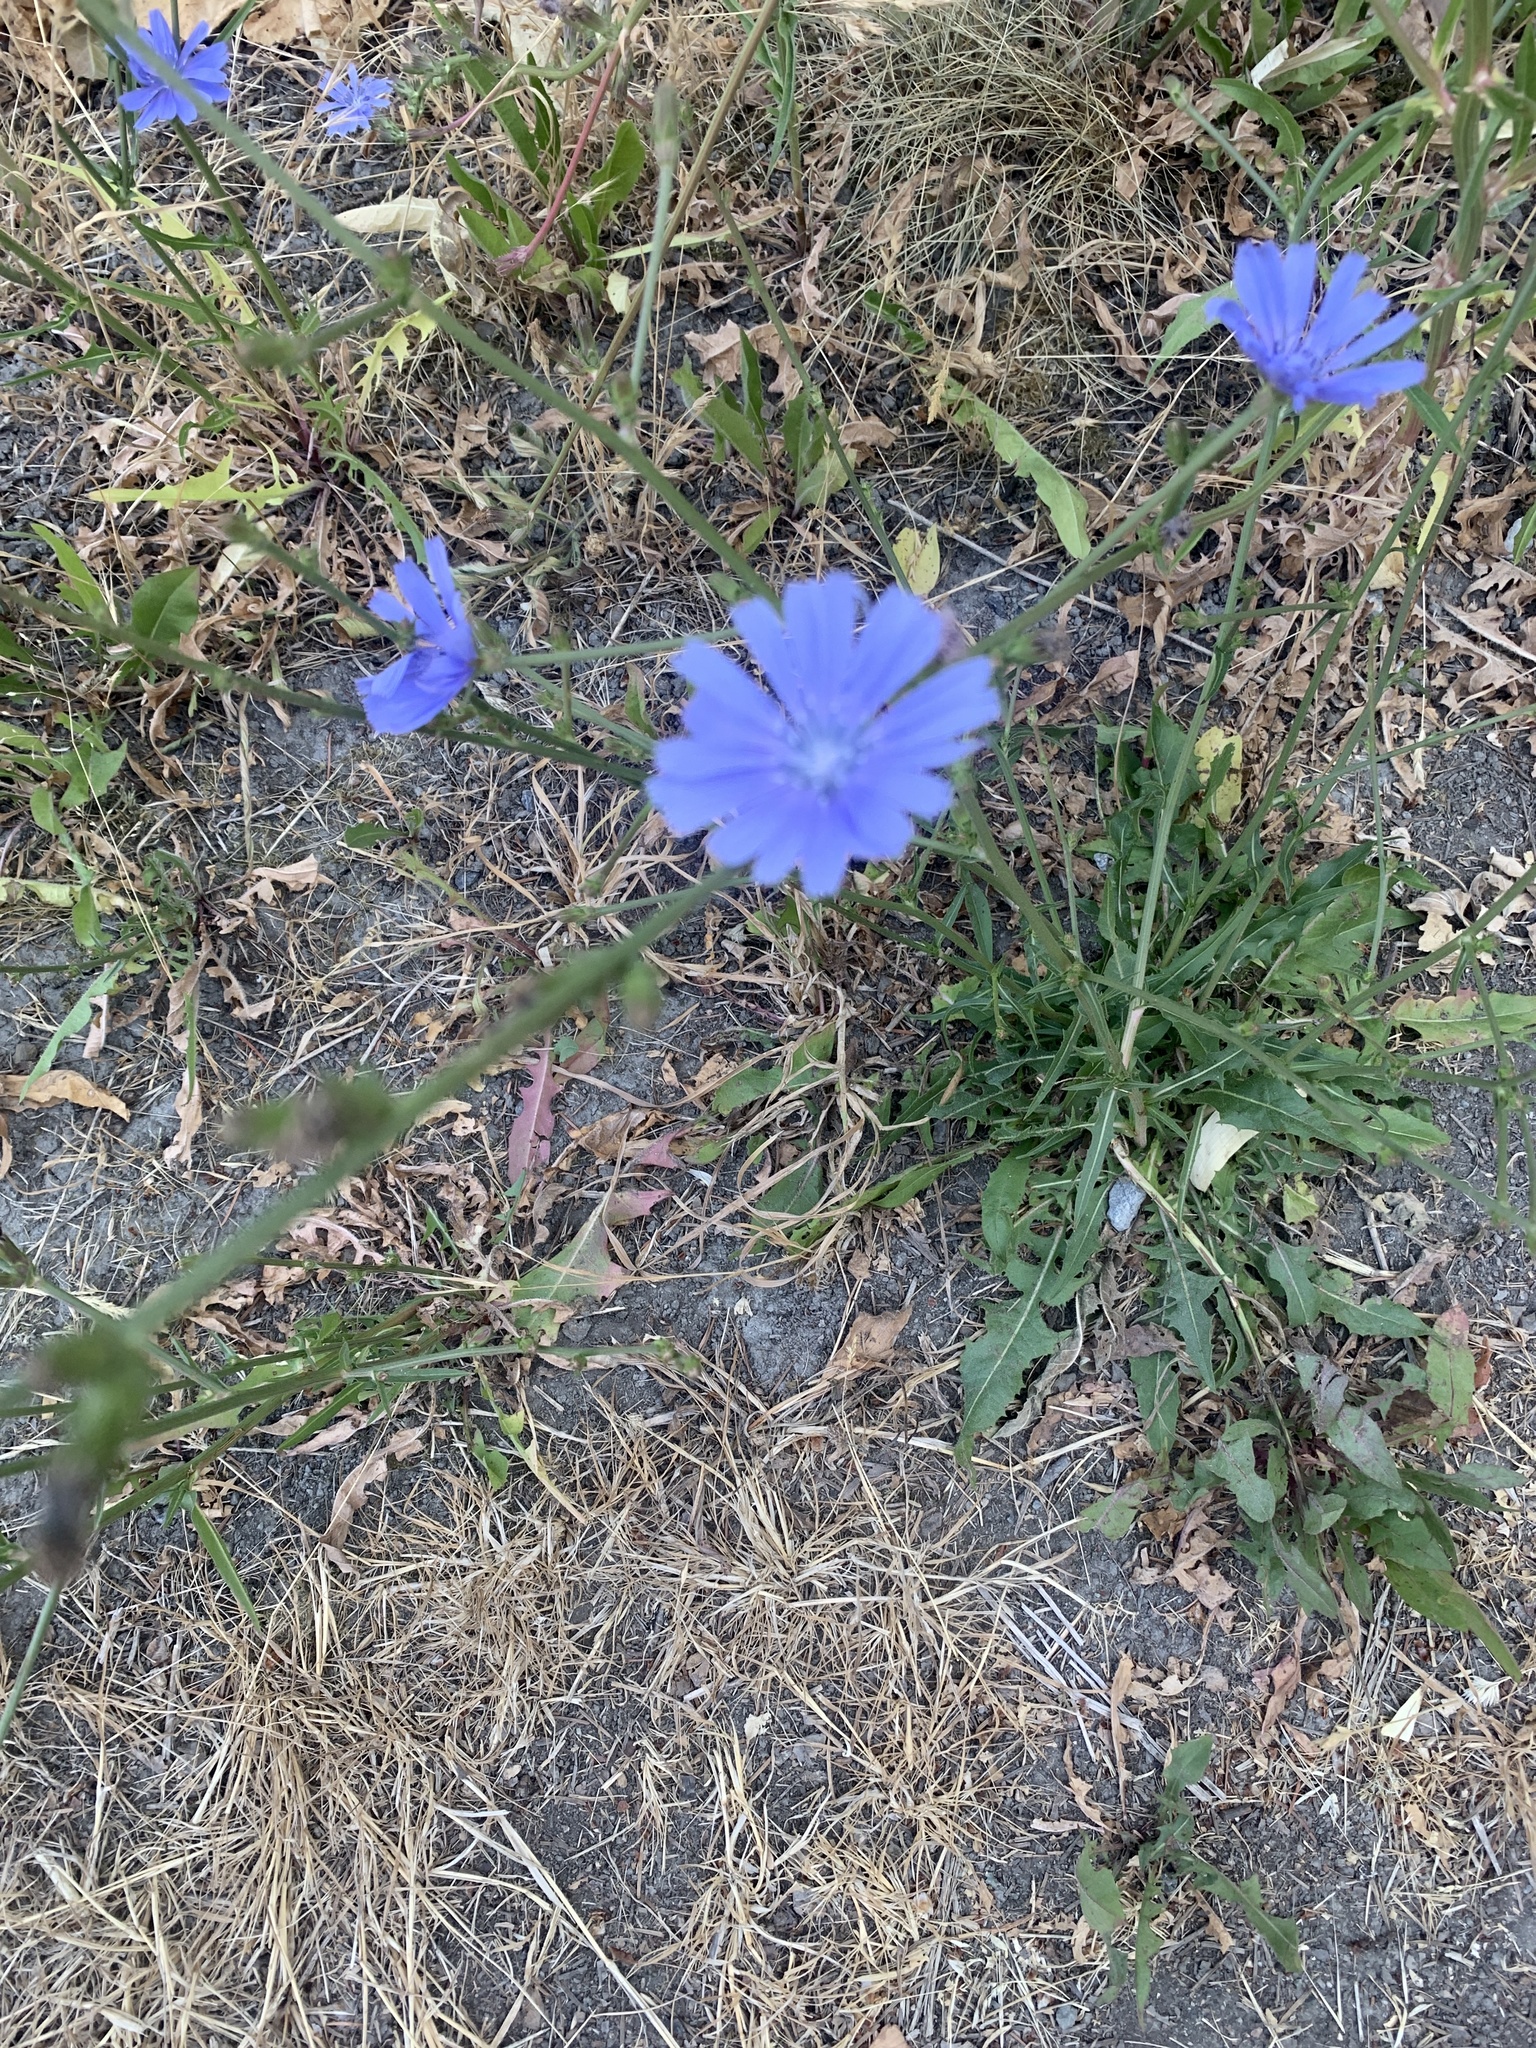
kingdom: Plantae
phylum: Tracheophyta
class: Magnoliopsida
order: Asterales
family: Asteraceae
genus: Cichorium
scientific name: Cichorium intybus
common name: Chicory
